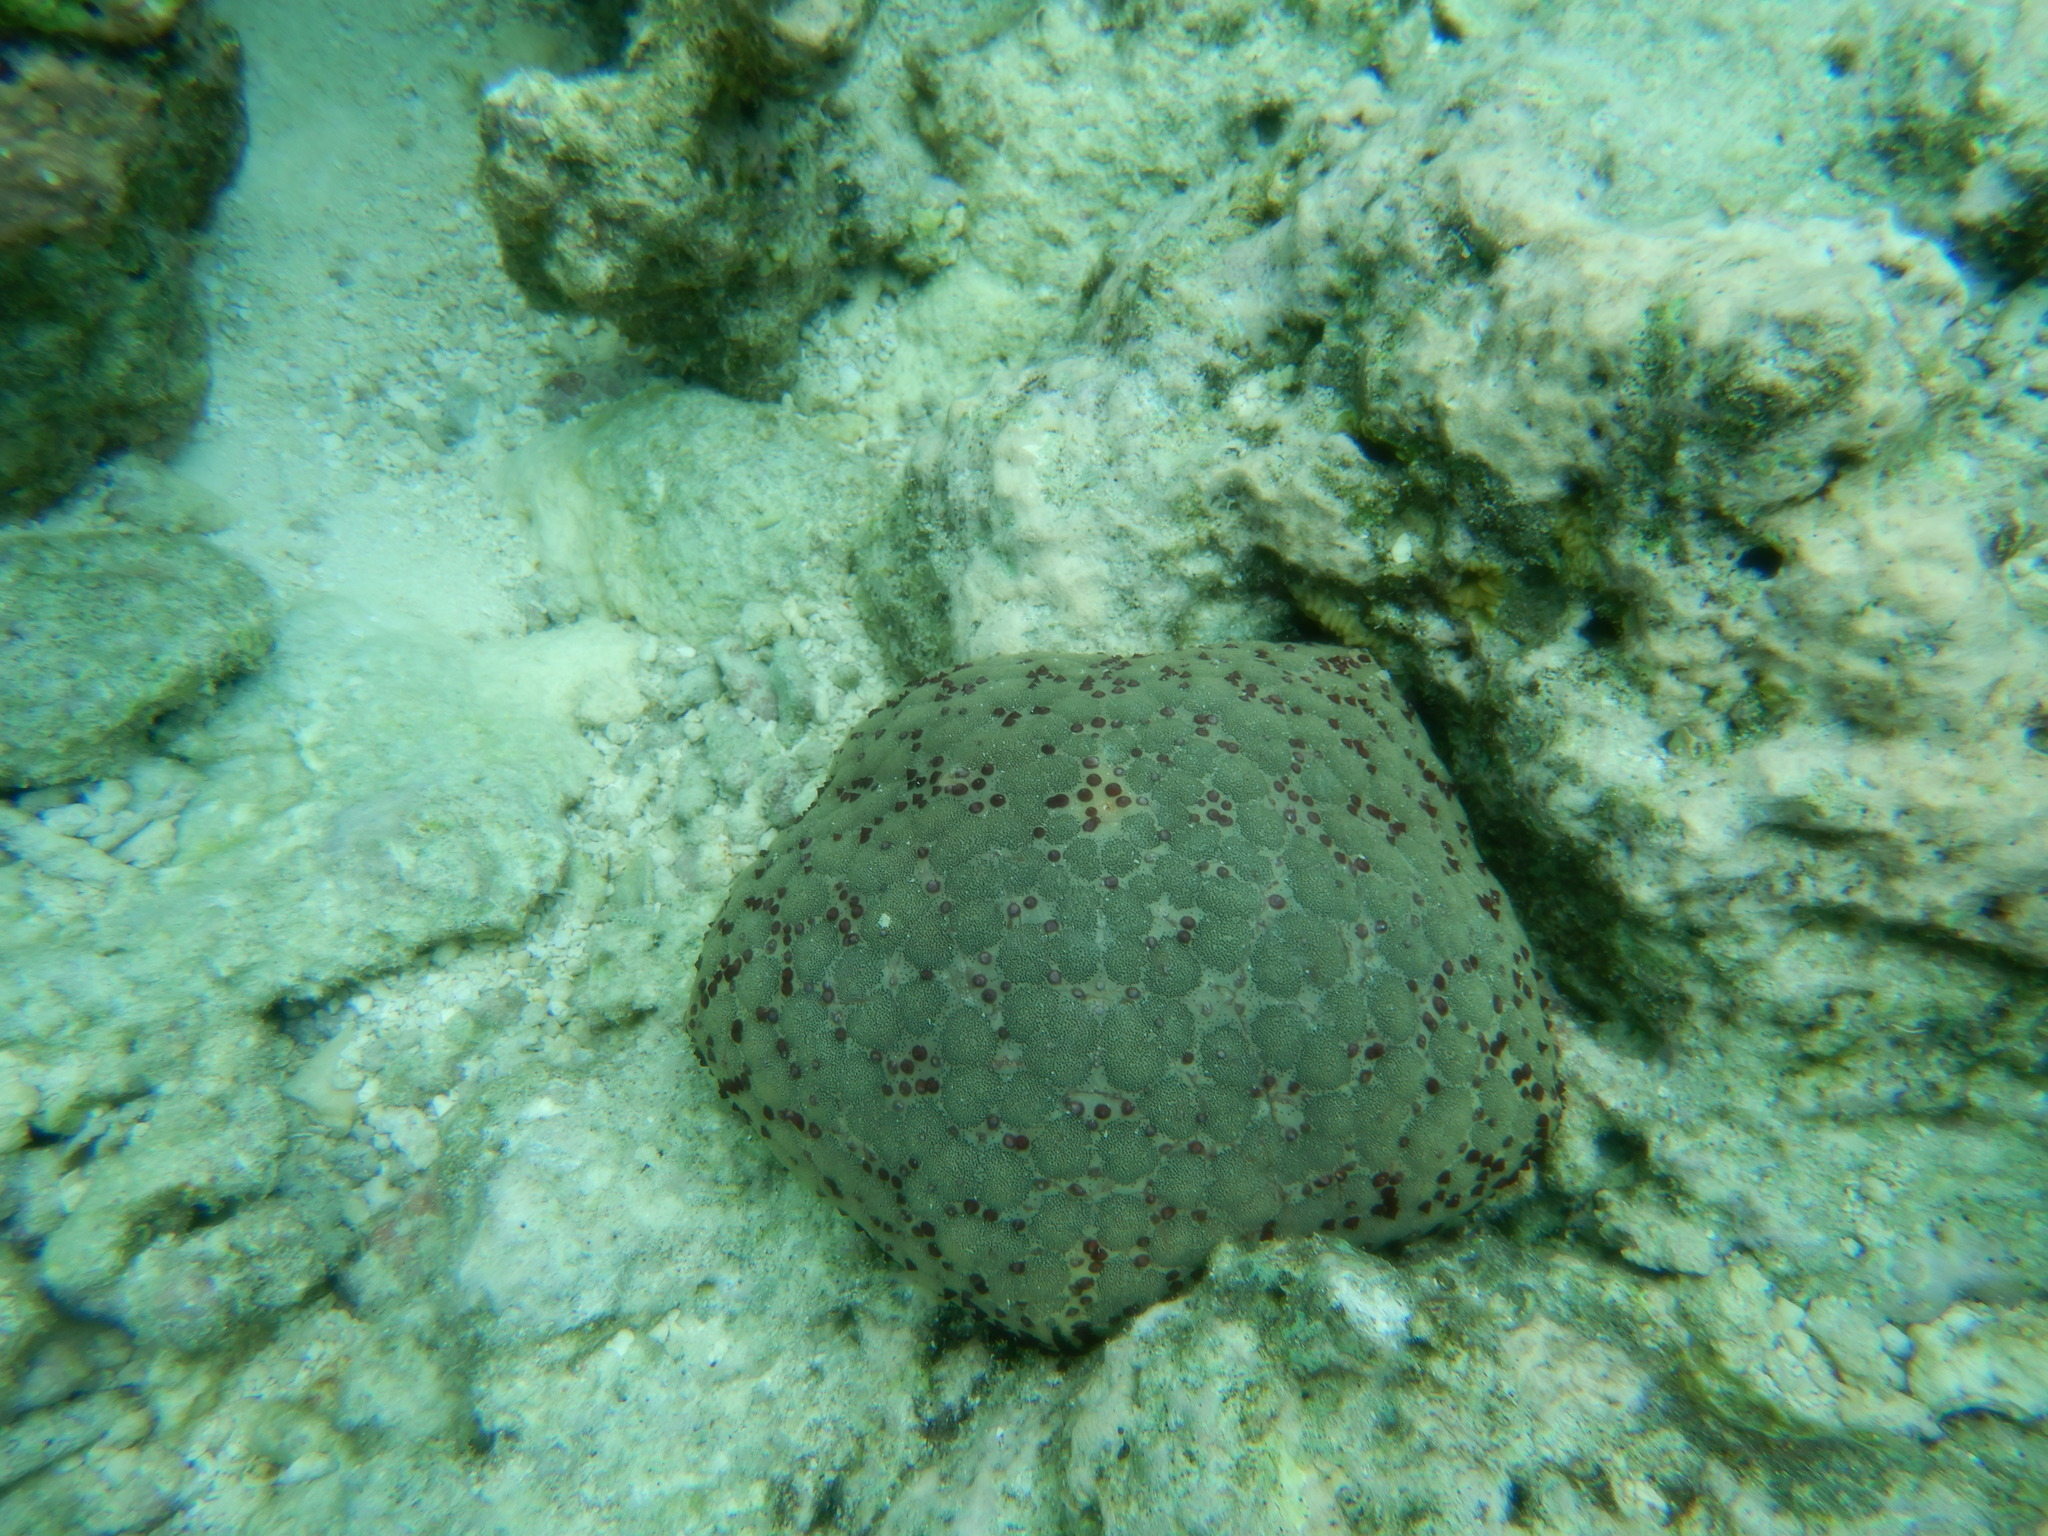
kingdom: Animalia
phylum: Echinodermata
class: Asteroidea
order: Valvatida
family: Oreasteridae
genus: Culcita
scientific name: Culcita schmideliana
